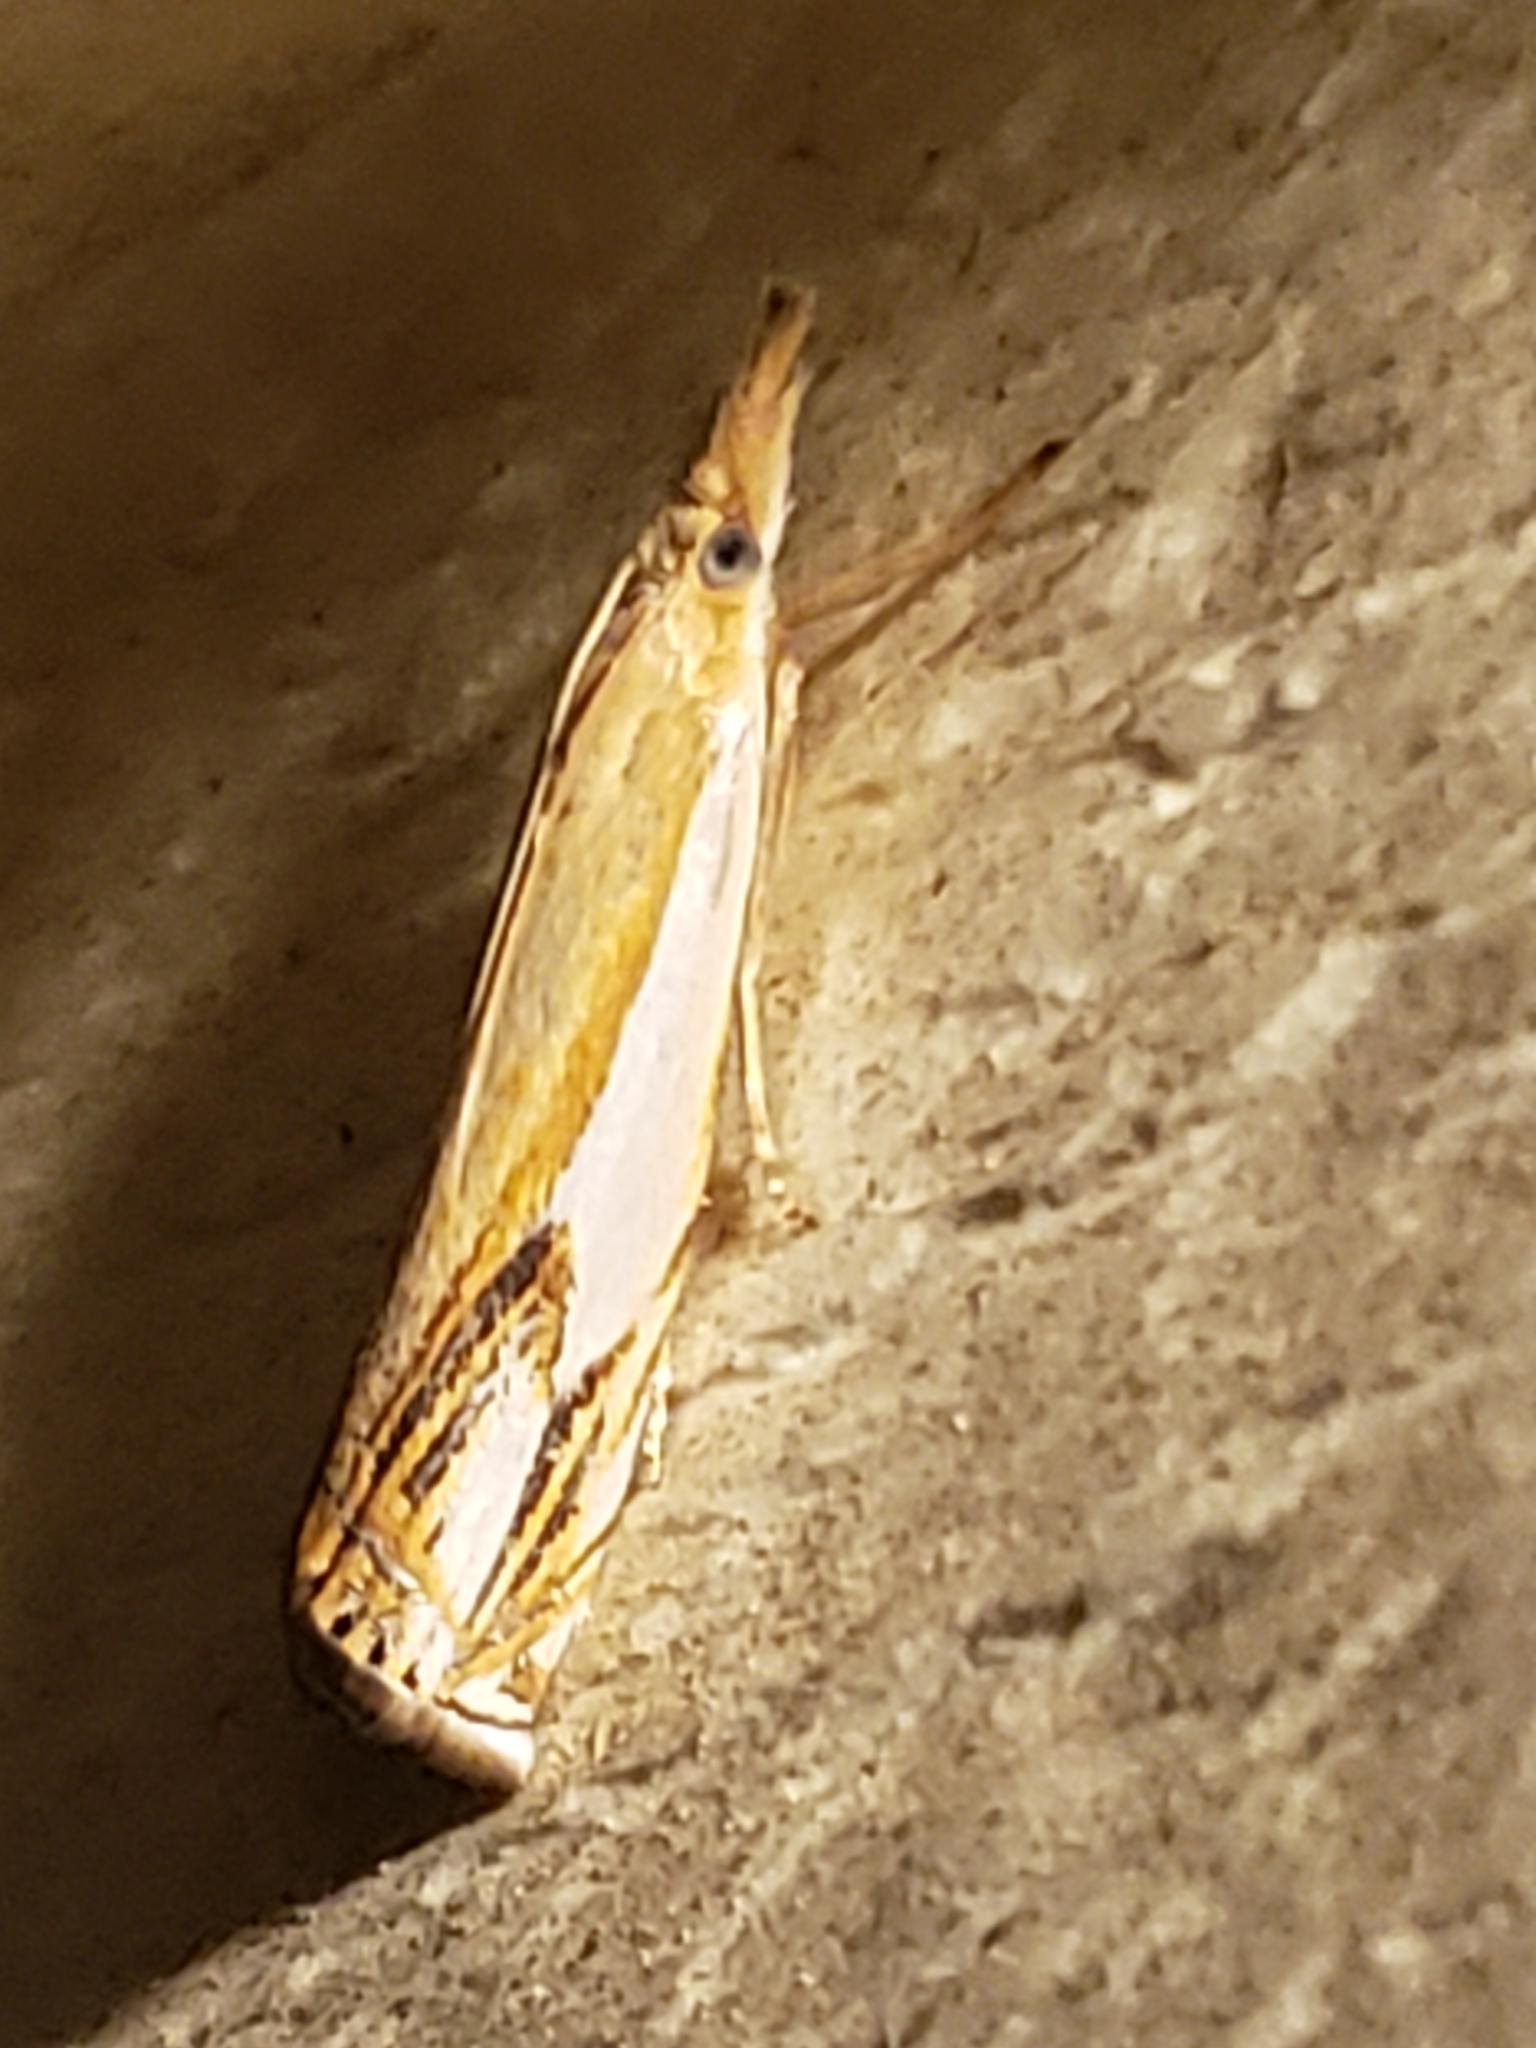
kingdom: Animalia
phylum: Arthropoda
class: Insecta
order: Lepidoptera
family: Crambidae
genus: Crambus
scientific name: Crambus agitatellus
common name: Double-banded grass-veneer
